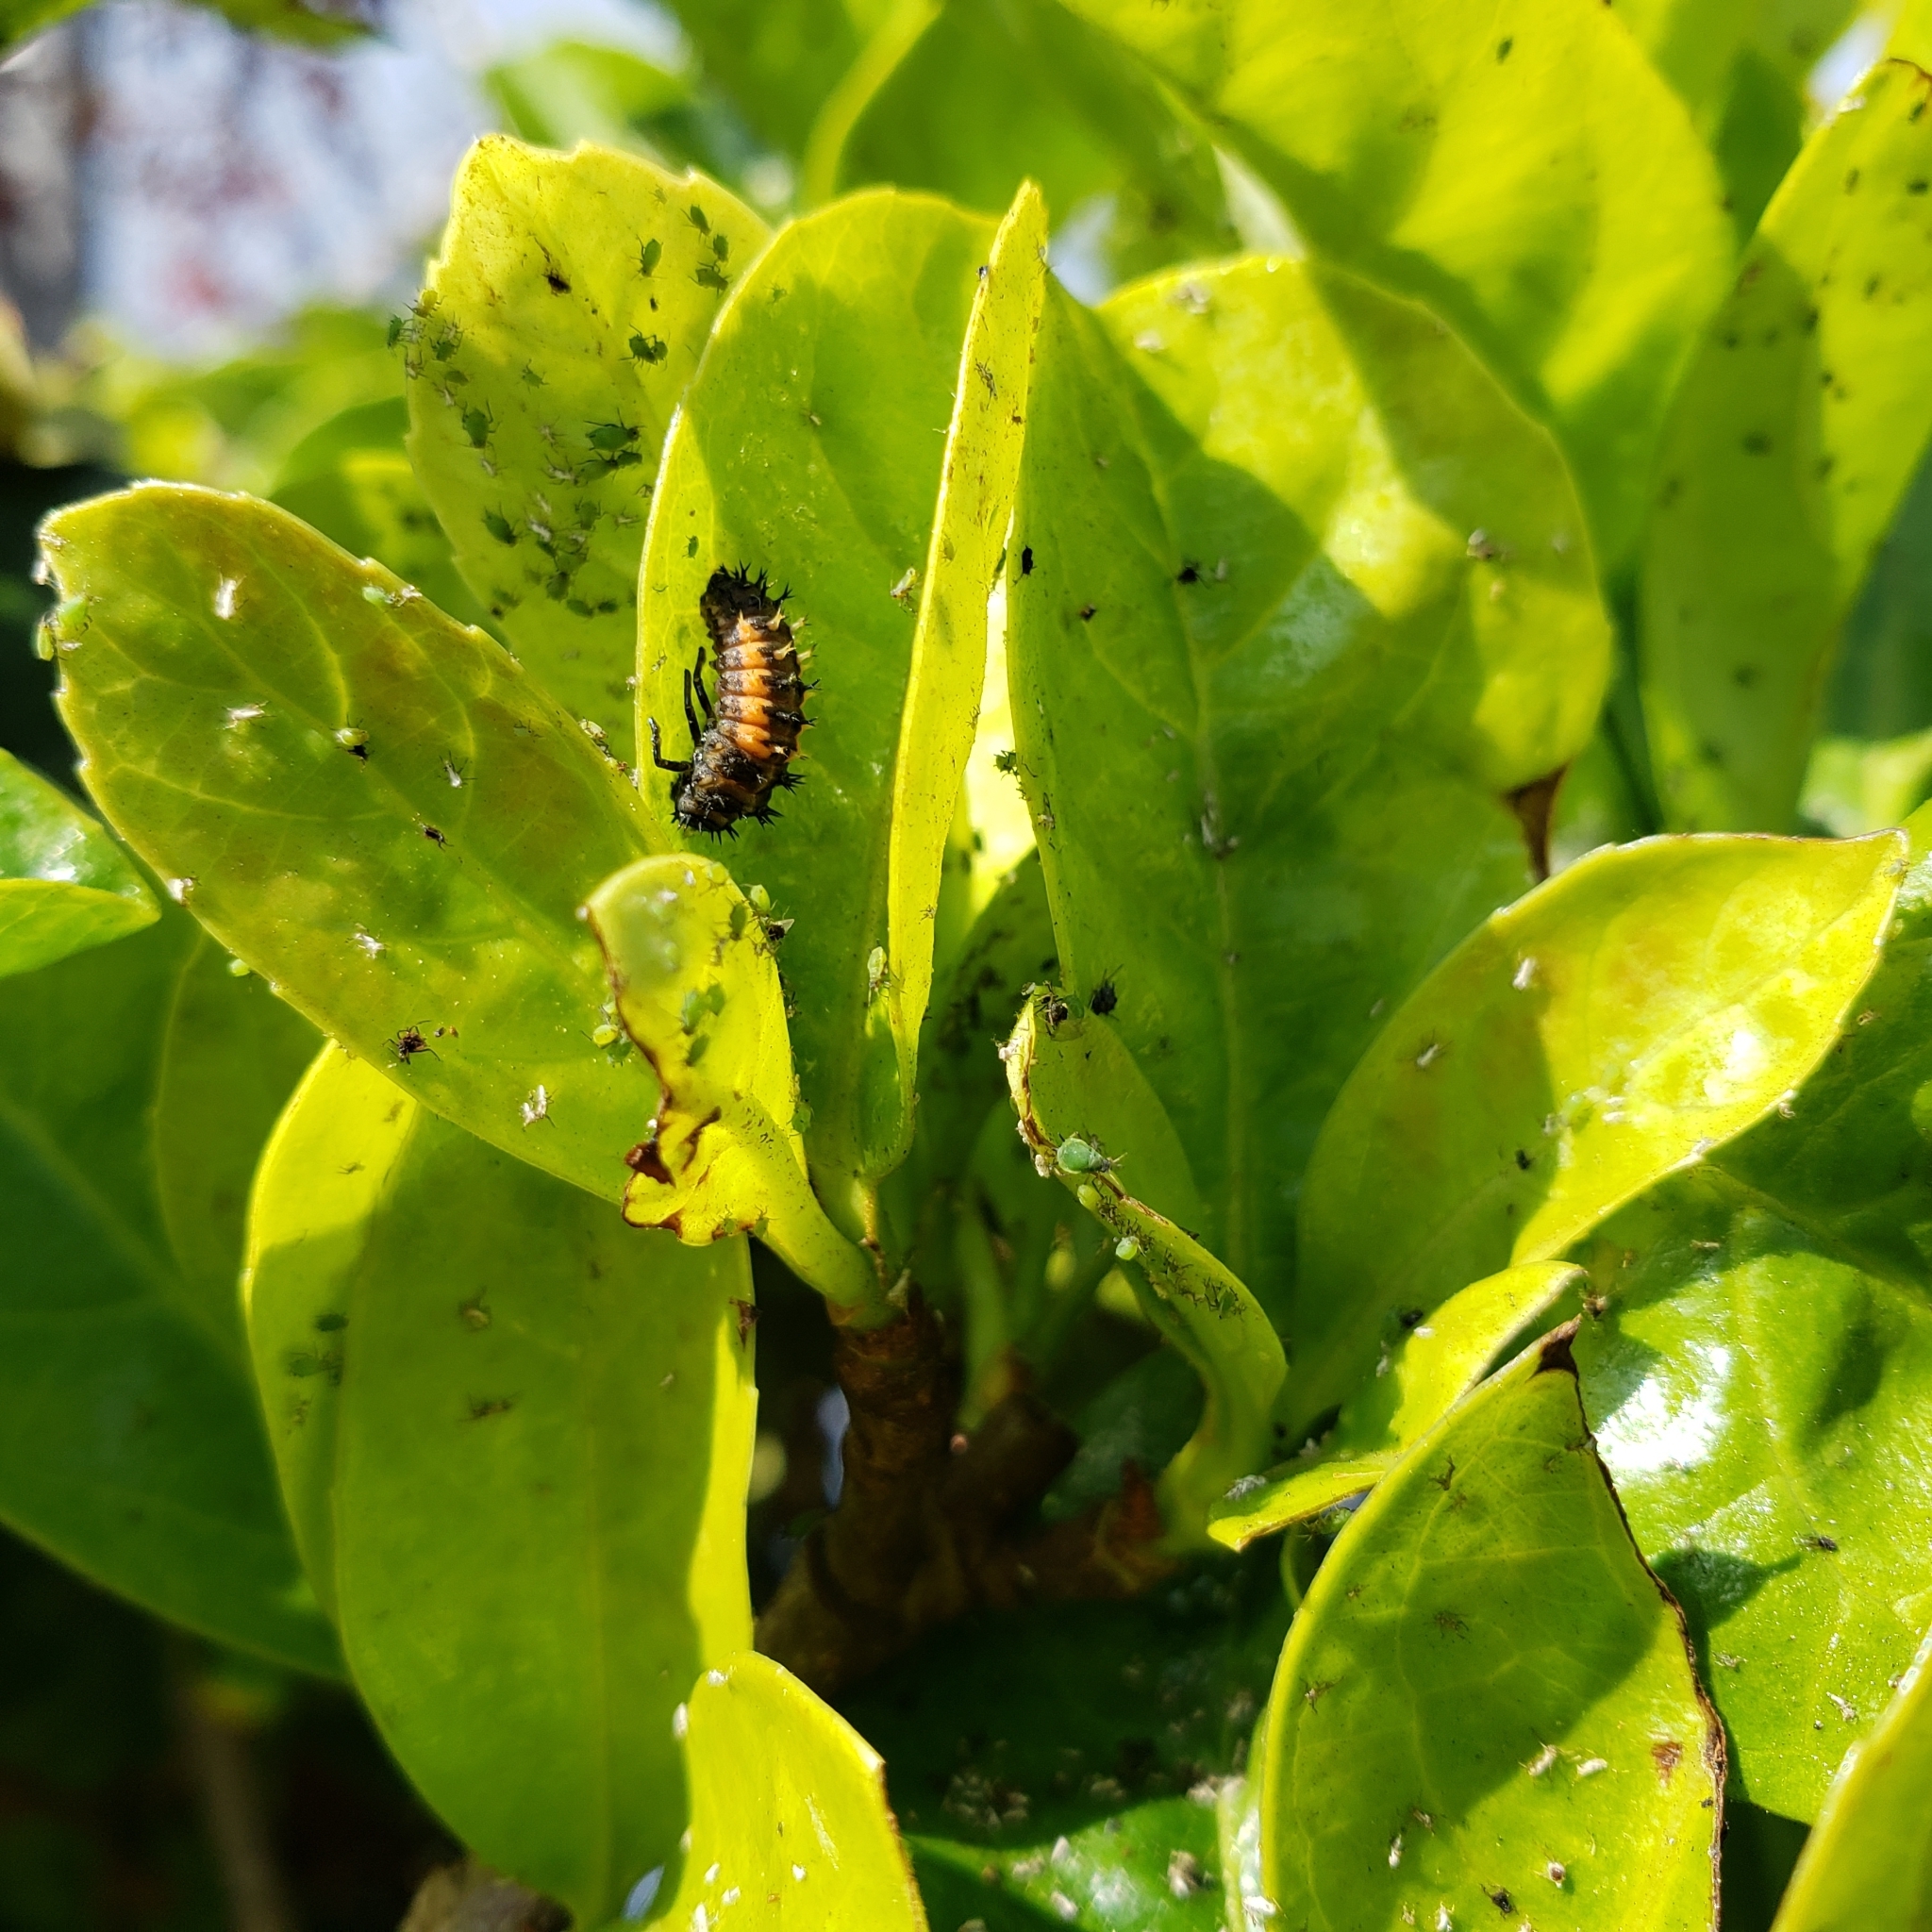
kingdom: Animalia
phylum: Arthropoda
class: Insecta
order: Coleoptera
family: Coccinellidae
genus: Harmonia
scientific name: Harmonia axyridis
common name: Harlequin ladybird
